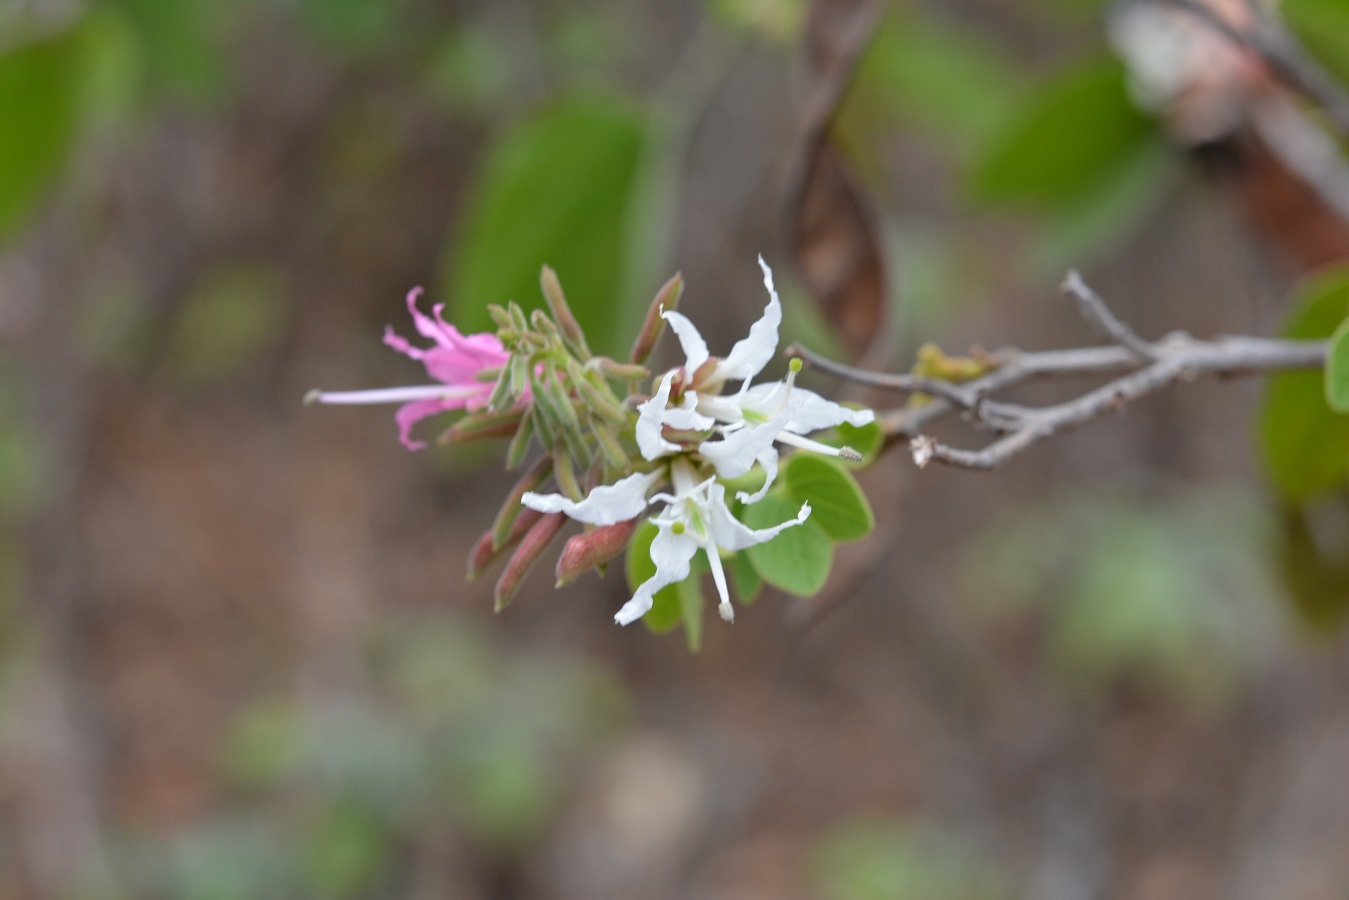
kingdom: Plantae
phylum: Tracheophyta
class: Magnoliopsida
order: Fabales
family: Fabaceae
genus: Bauhinia
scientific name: Bauhinia divaricata
